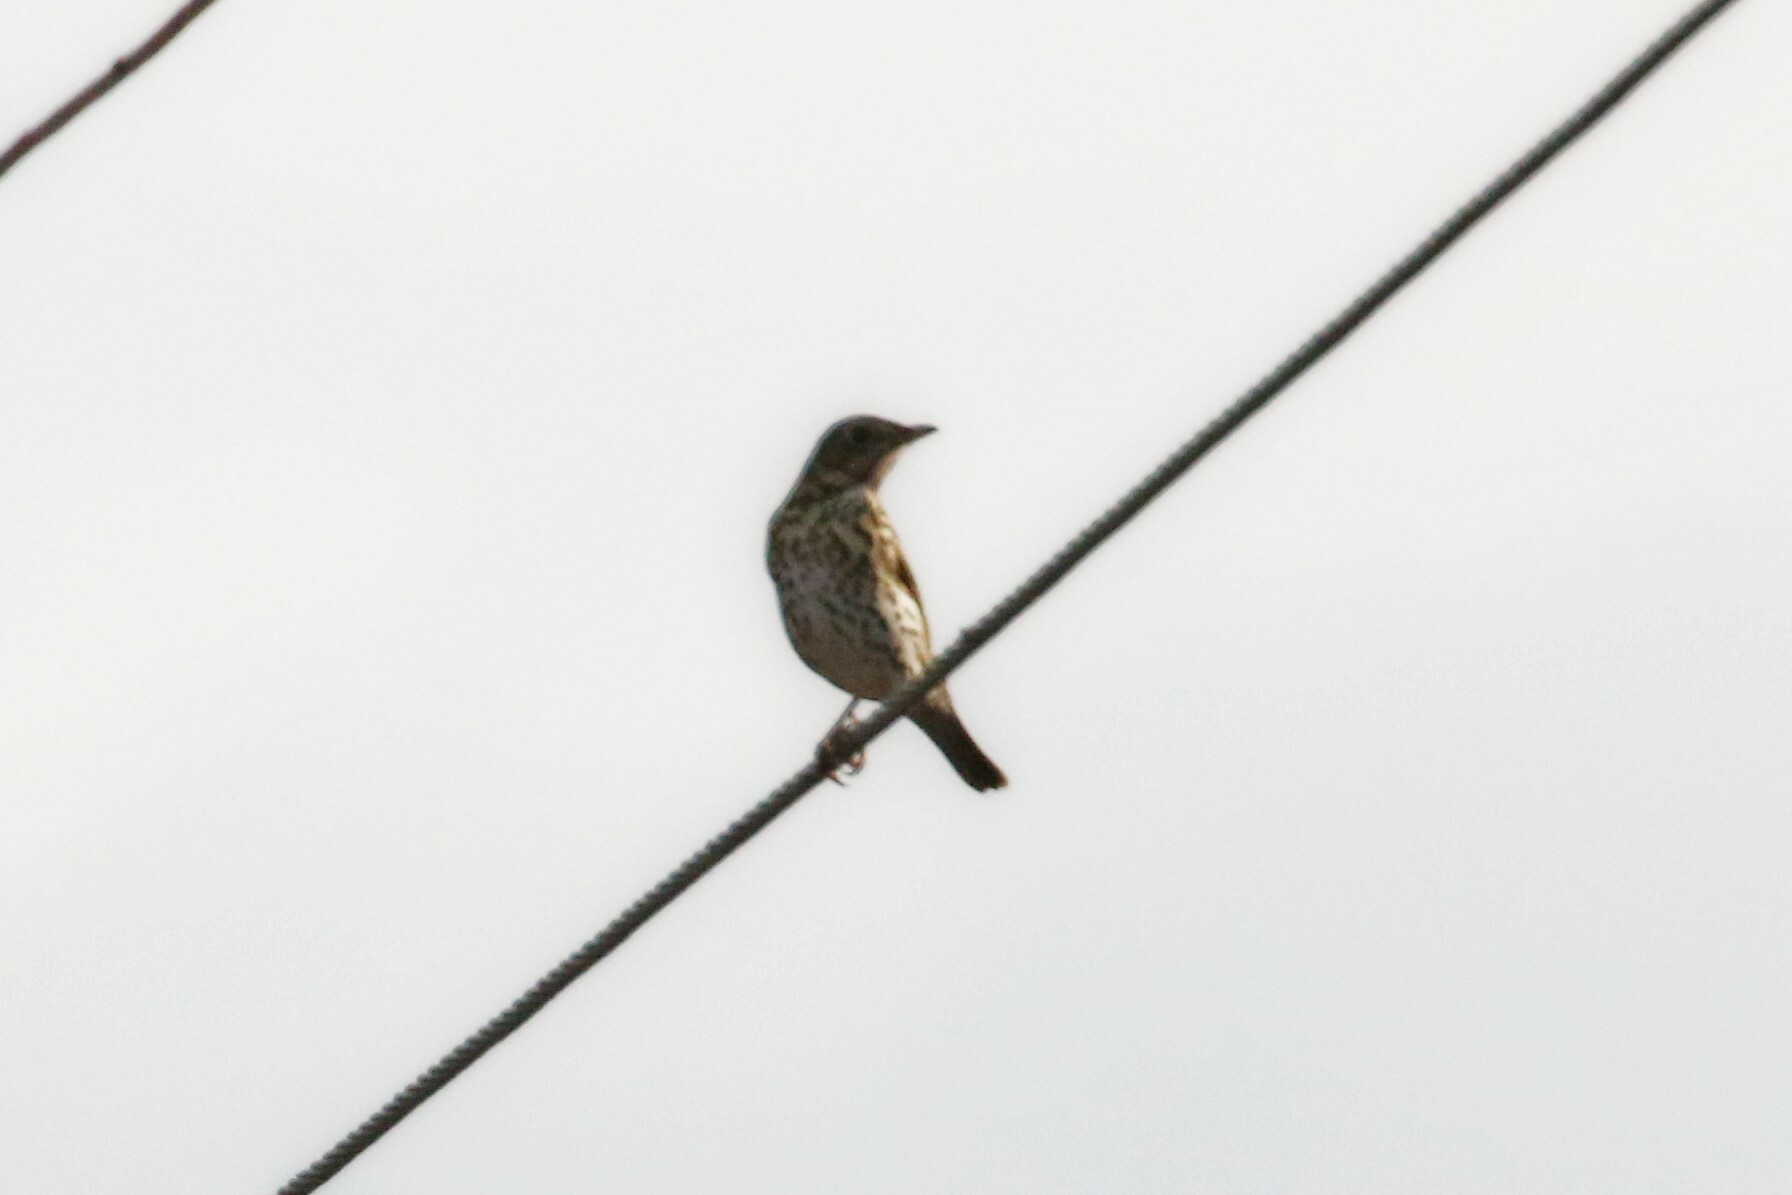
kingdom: Animalia
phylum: Chordata
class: Aves
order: Passeriformes
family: Turdidae
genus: Turdus
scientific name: Turdus philomelos
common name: Song thrush
